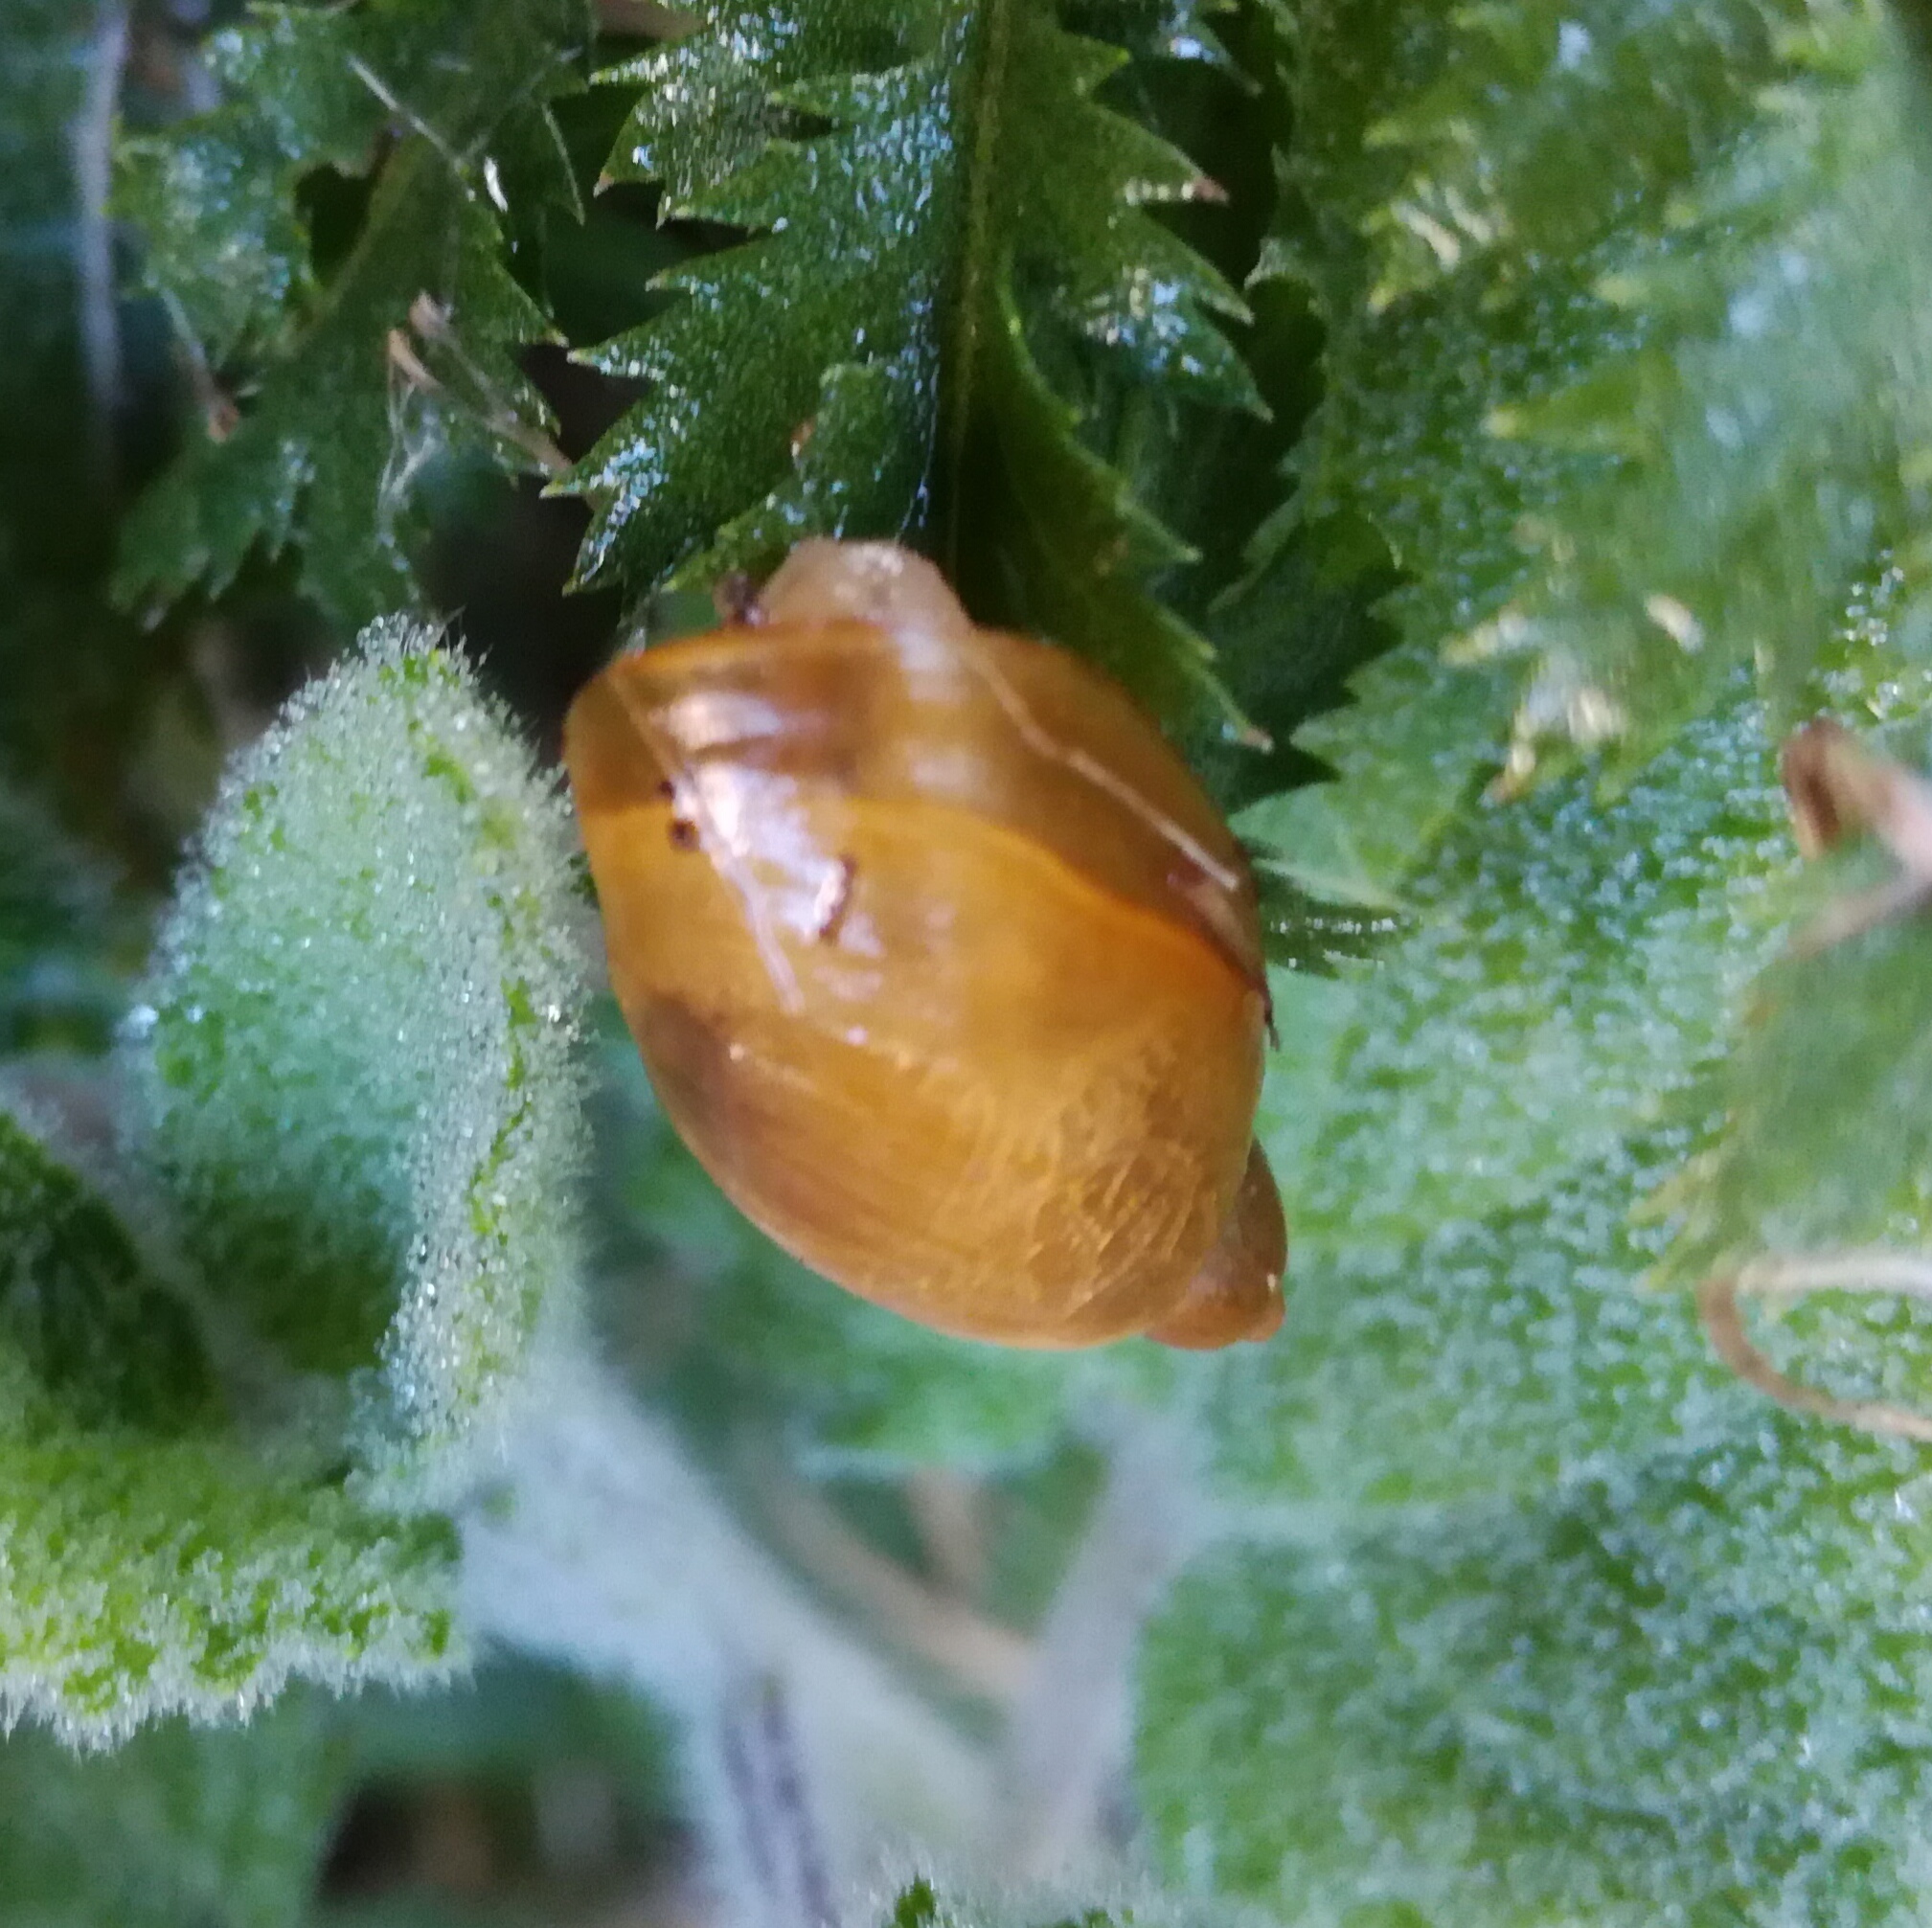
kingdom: Animalia
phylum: Mollusca
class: Gastropoda
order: Stylommatophora
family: Succineidae
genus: Succinea
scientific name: Succinea putris
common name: European ambersnail
